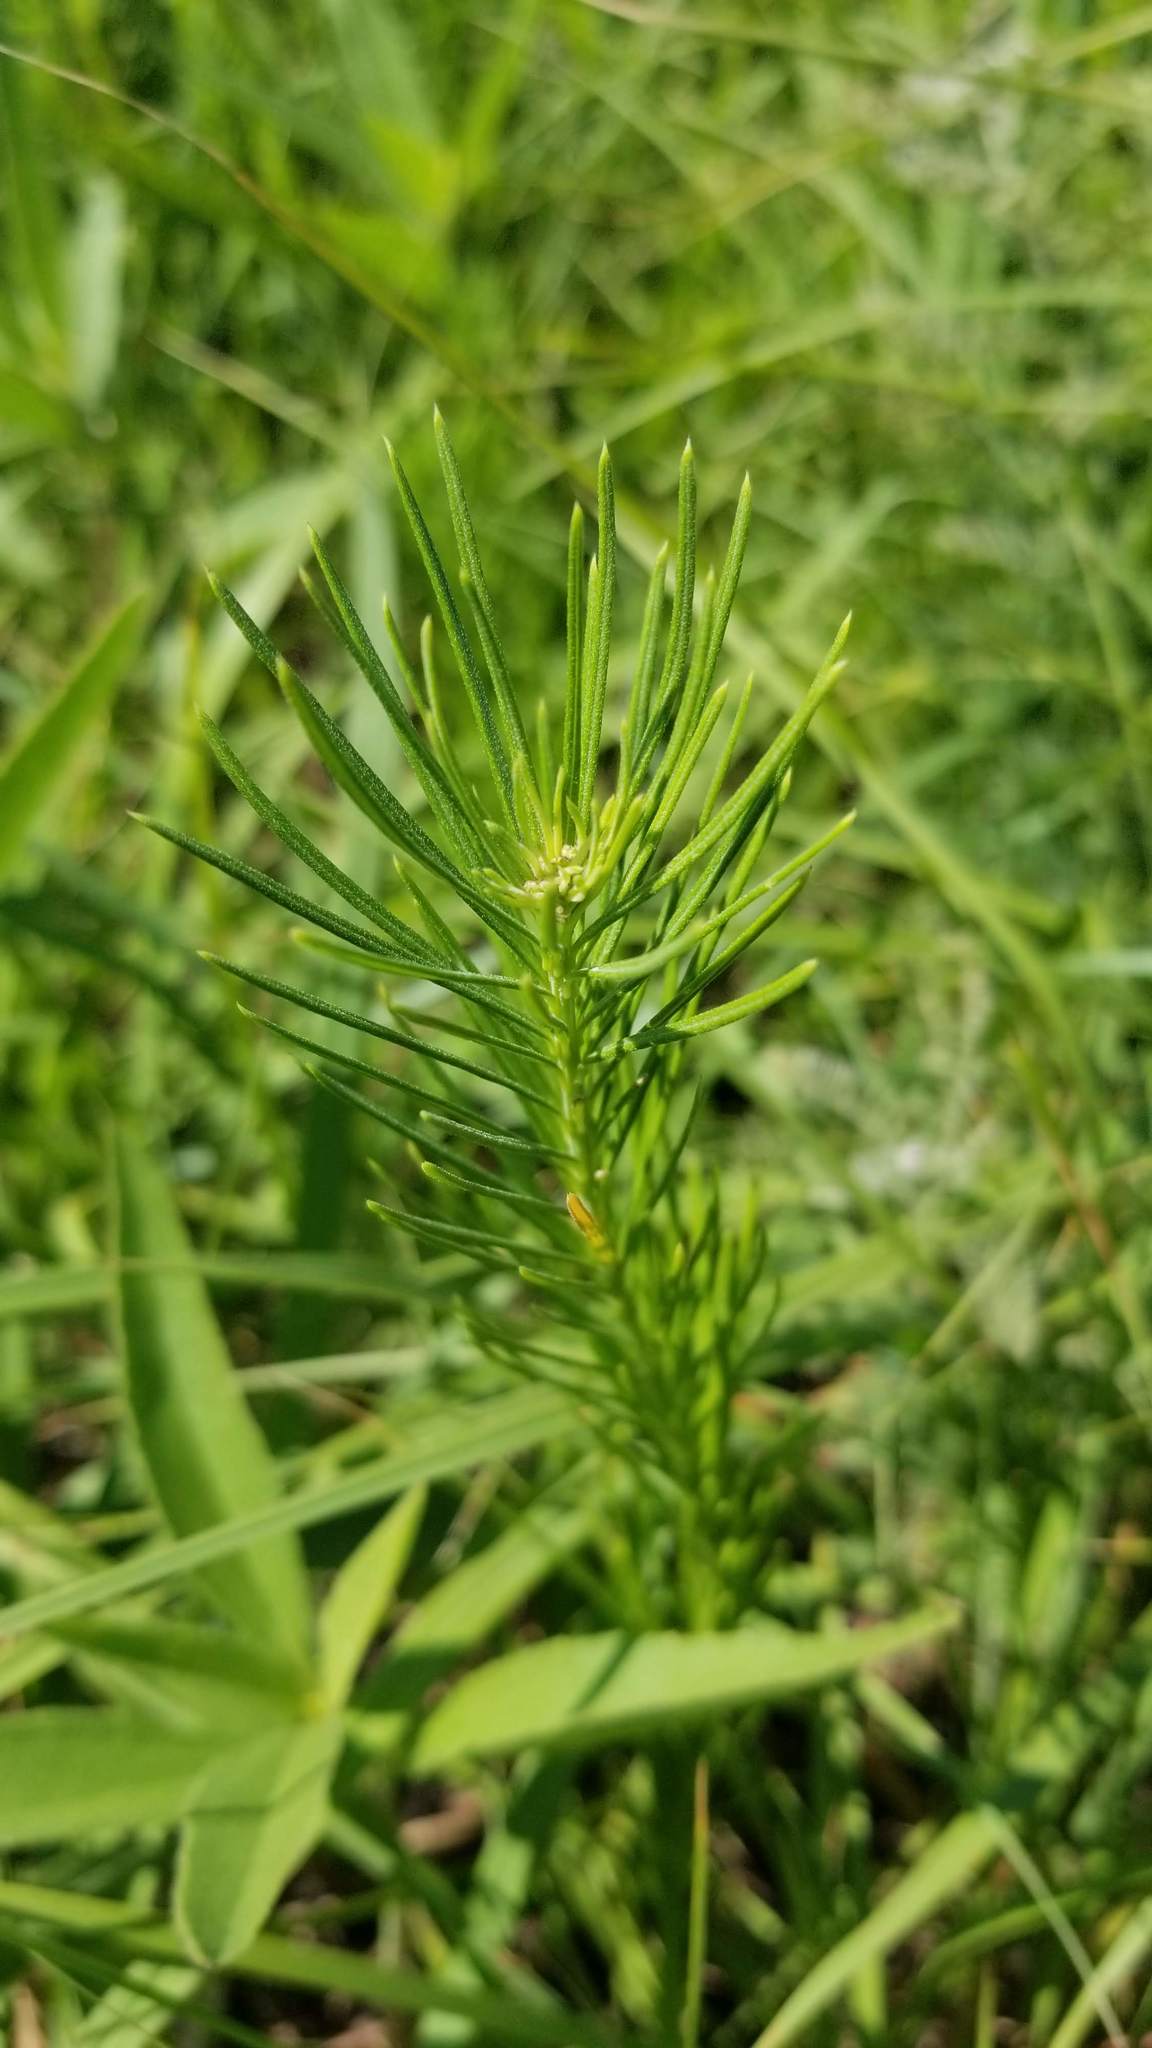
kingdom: Plantae
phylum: Tracheophyta
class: Magnoliopsida
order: Gentianales
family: Apocynaceae
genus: Asclepias
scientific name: Asclepias verticillata
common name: Eastern whorled milkweed
